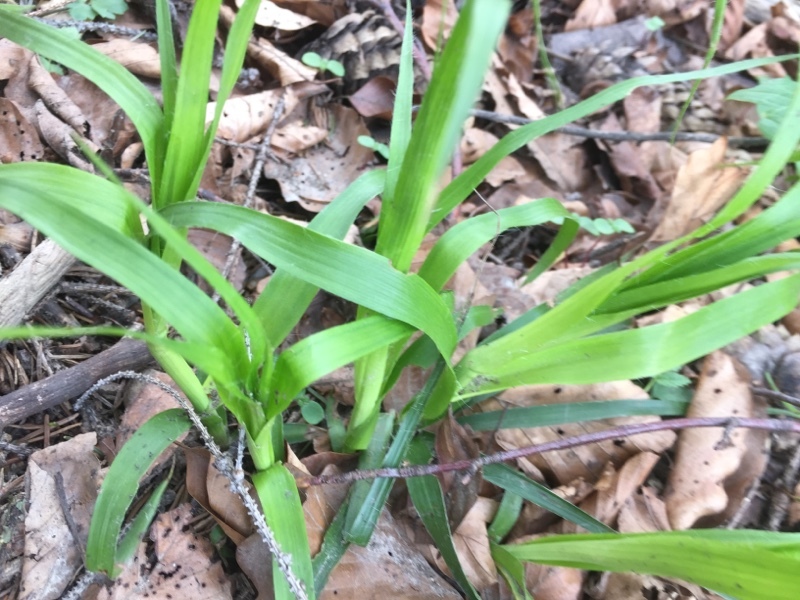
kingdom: Plantae
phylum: Tracheophyta
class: Liliopsida
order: Poales
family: Juncaceae
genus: Luzula
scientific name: Luzula sylvatica
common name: Great wood-rush
